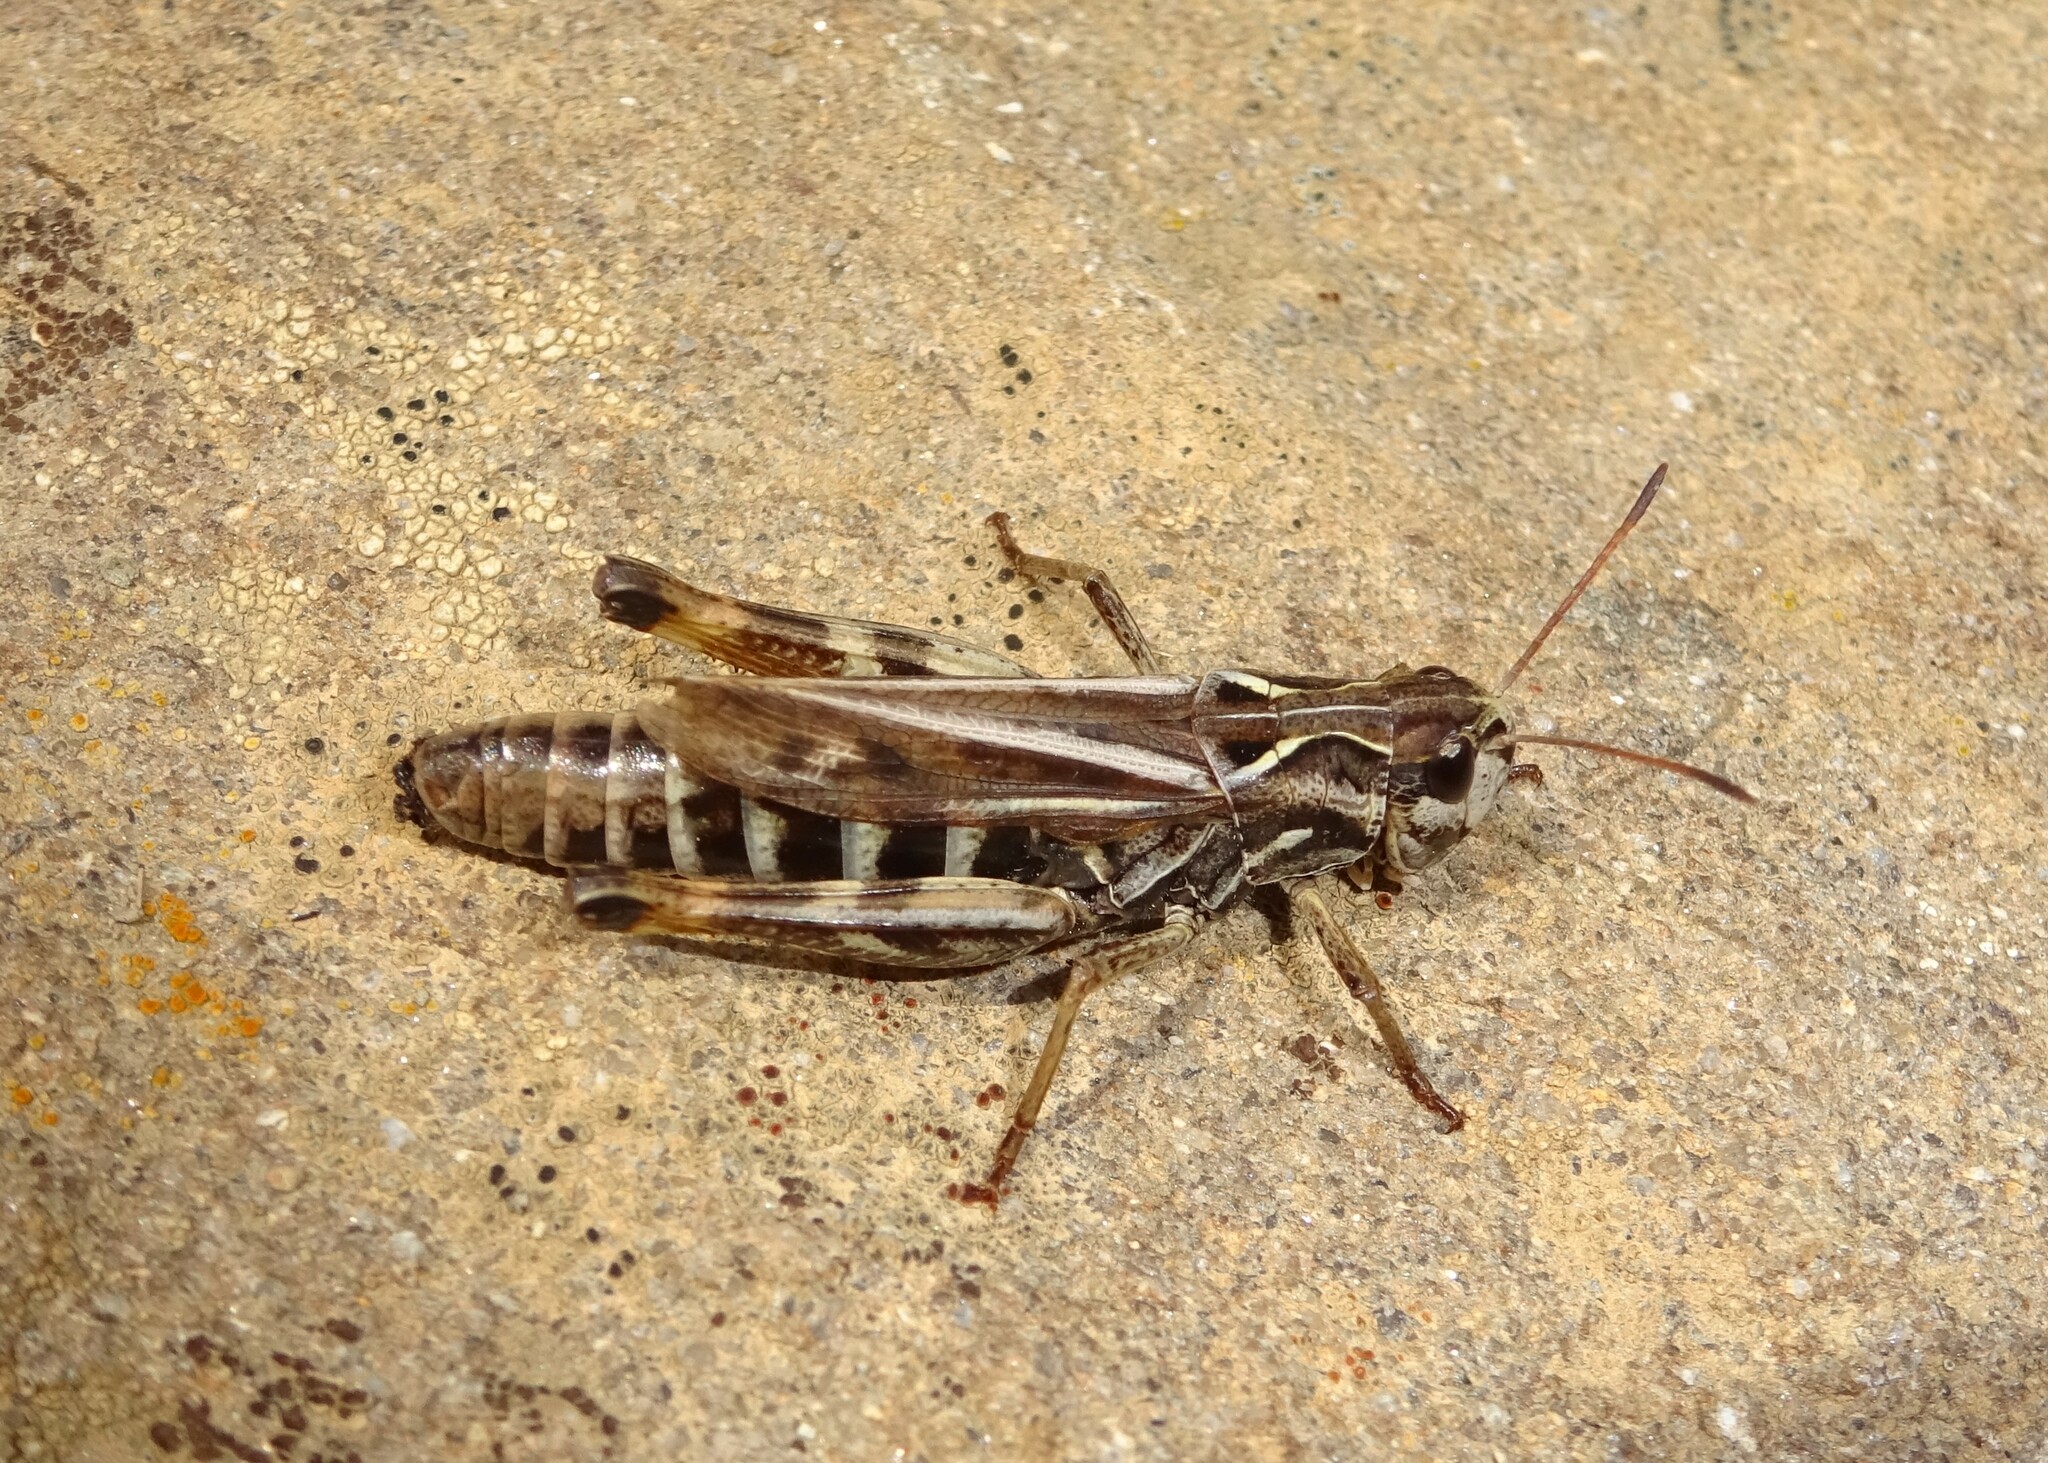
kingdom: Animalia
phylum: Arthropoda
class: Insecta
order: Orthoptera
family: Acrididae
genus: Gomphocerus
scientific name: Gomphocerus sibiricus
